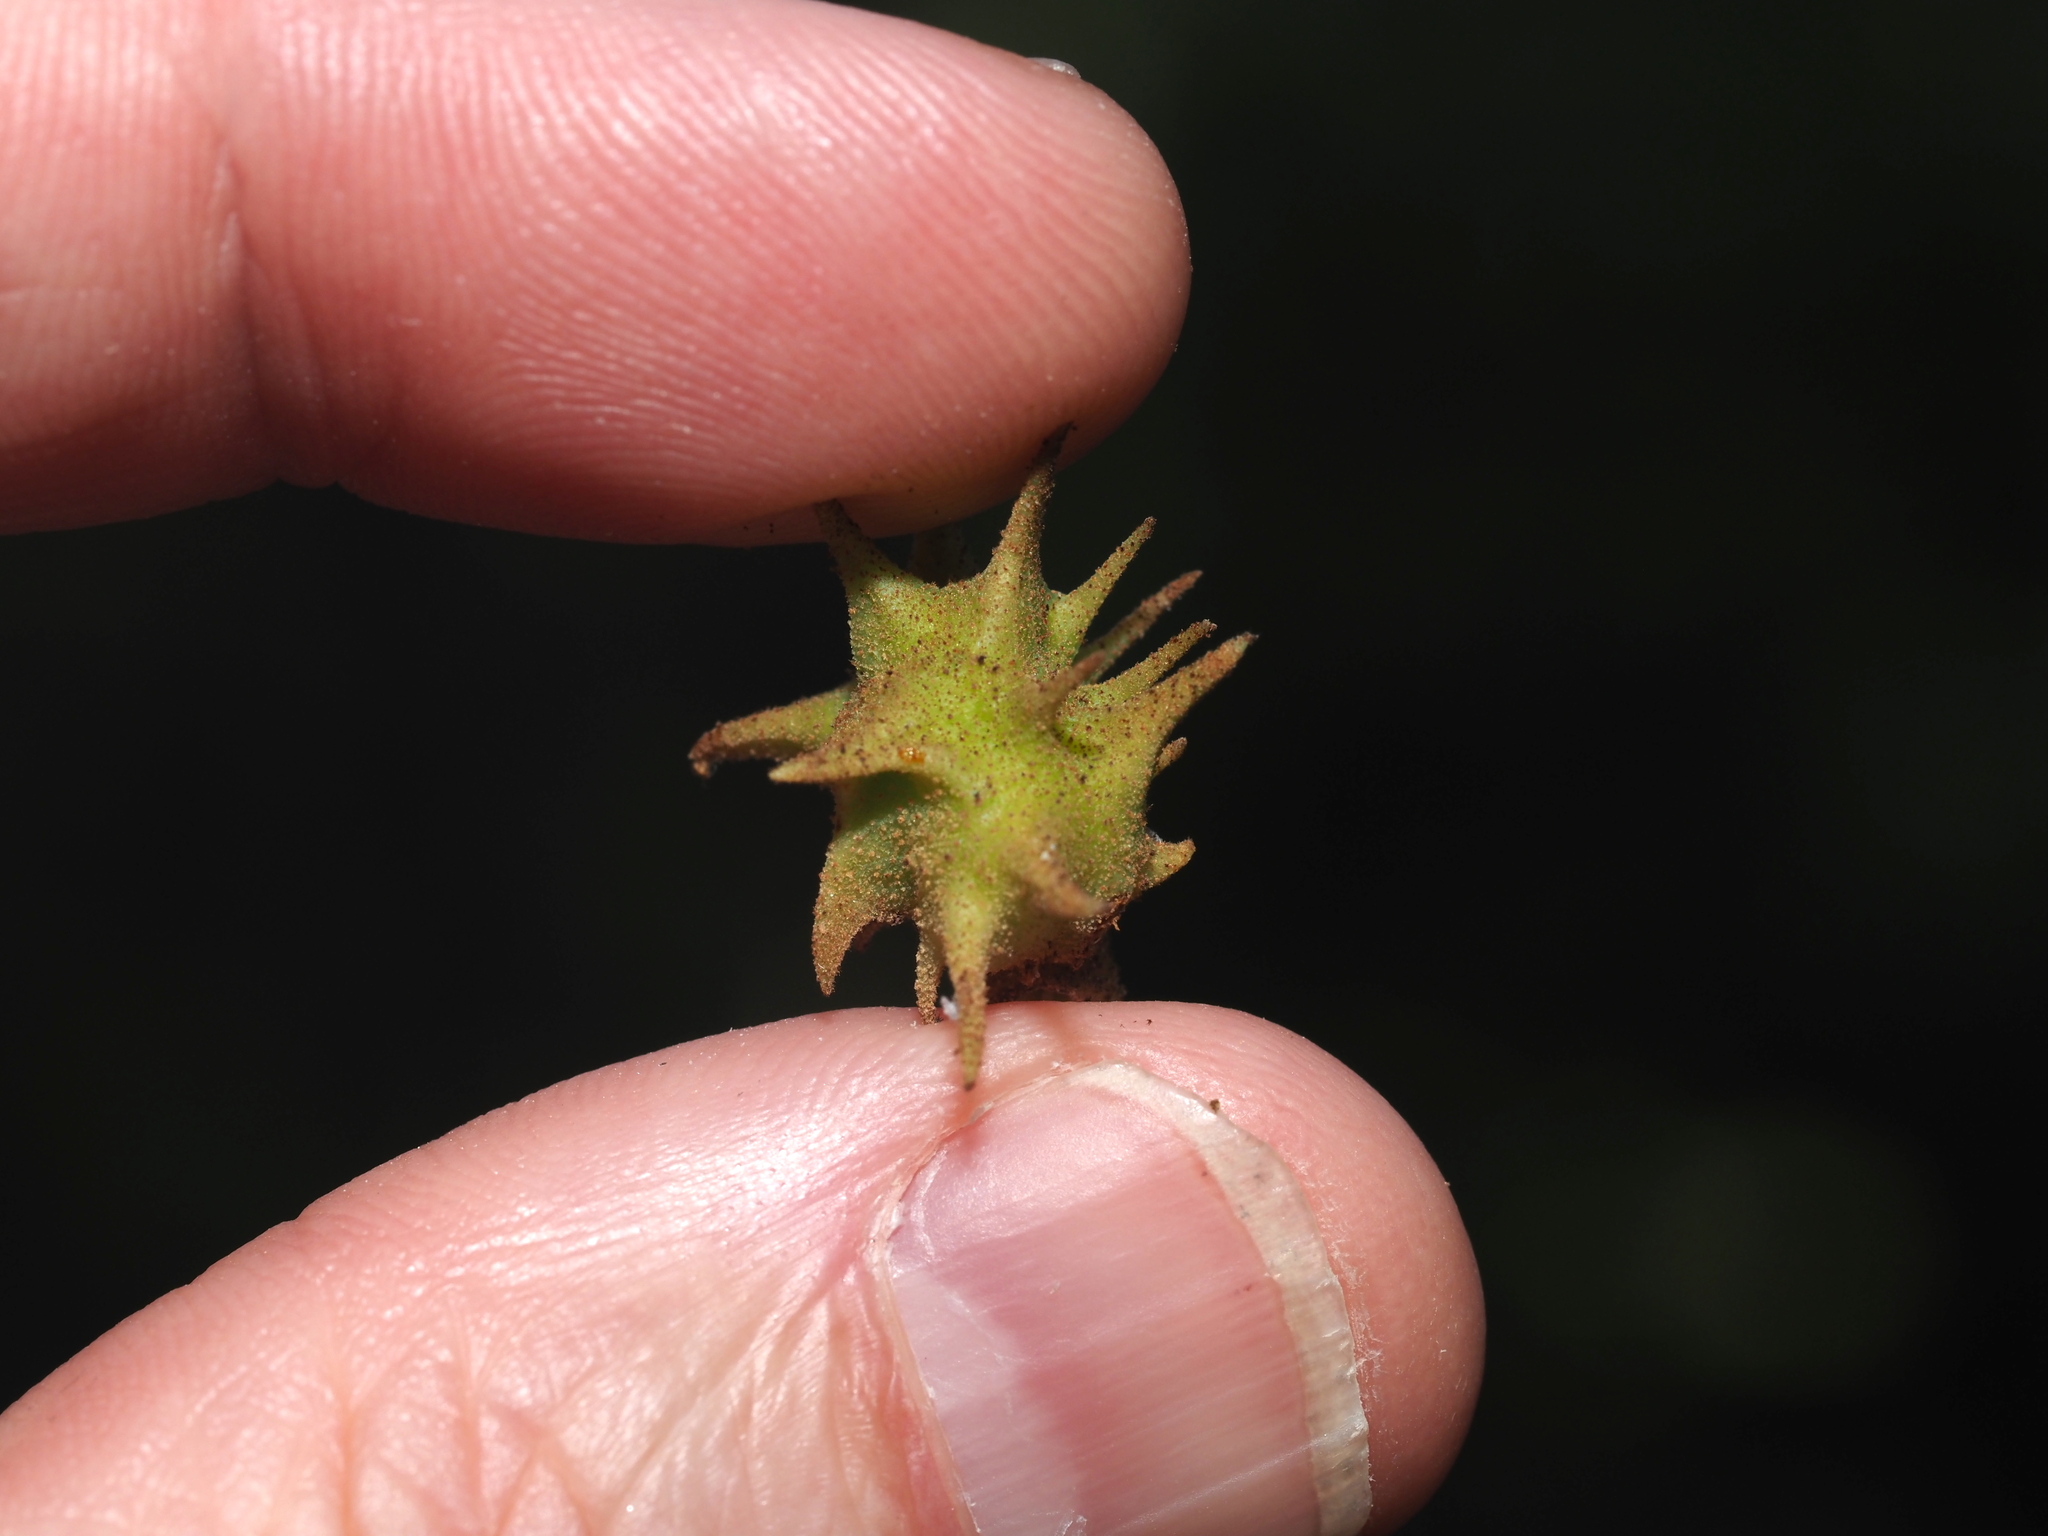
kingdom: Animalia
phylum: Arthropoda
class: Insecta
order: Hemiptera
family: Aphididae
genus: Hamamelistes
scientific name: Hamamelistes spinosus
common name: Witch hazel gall aphid
